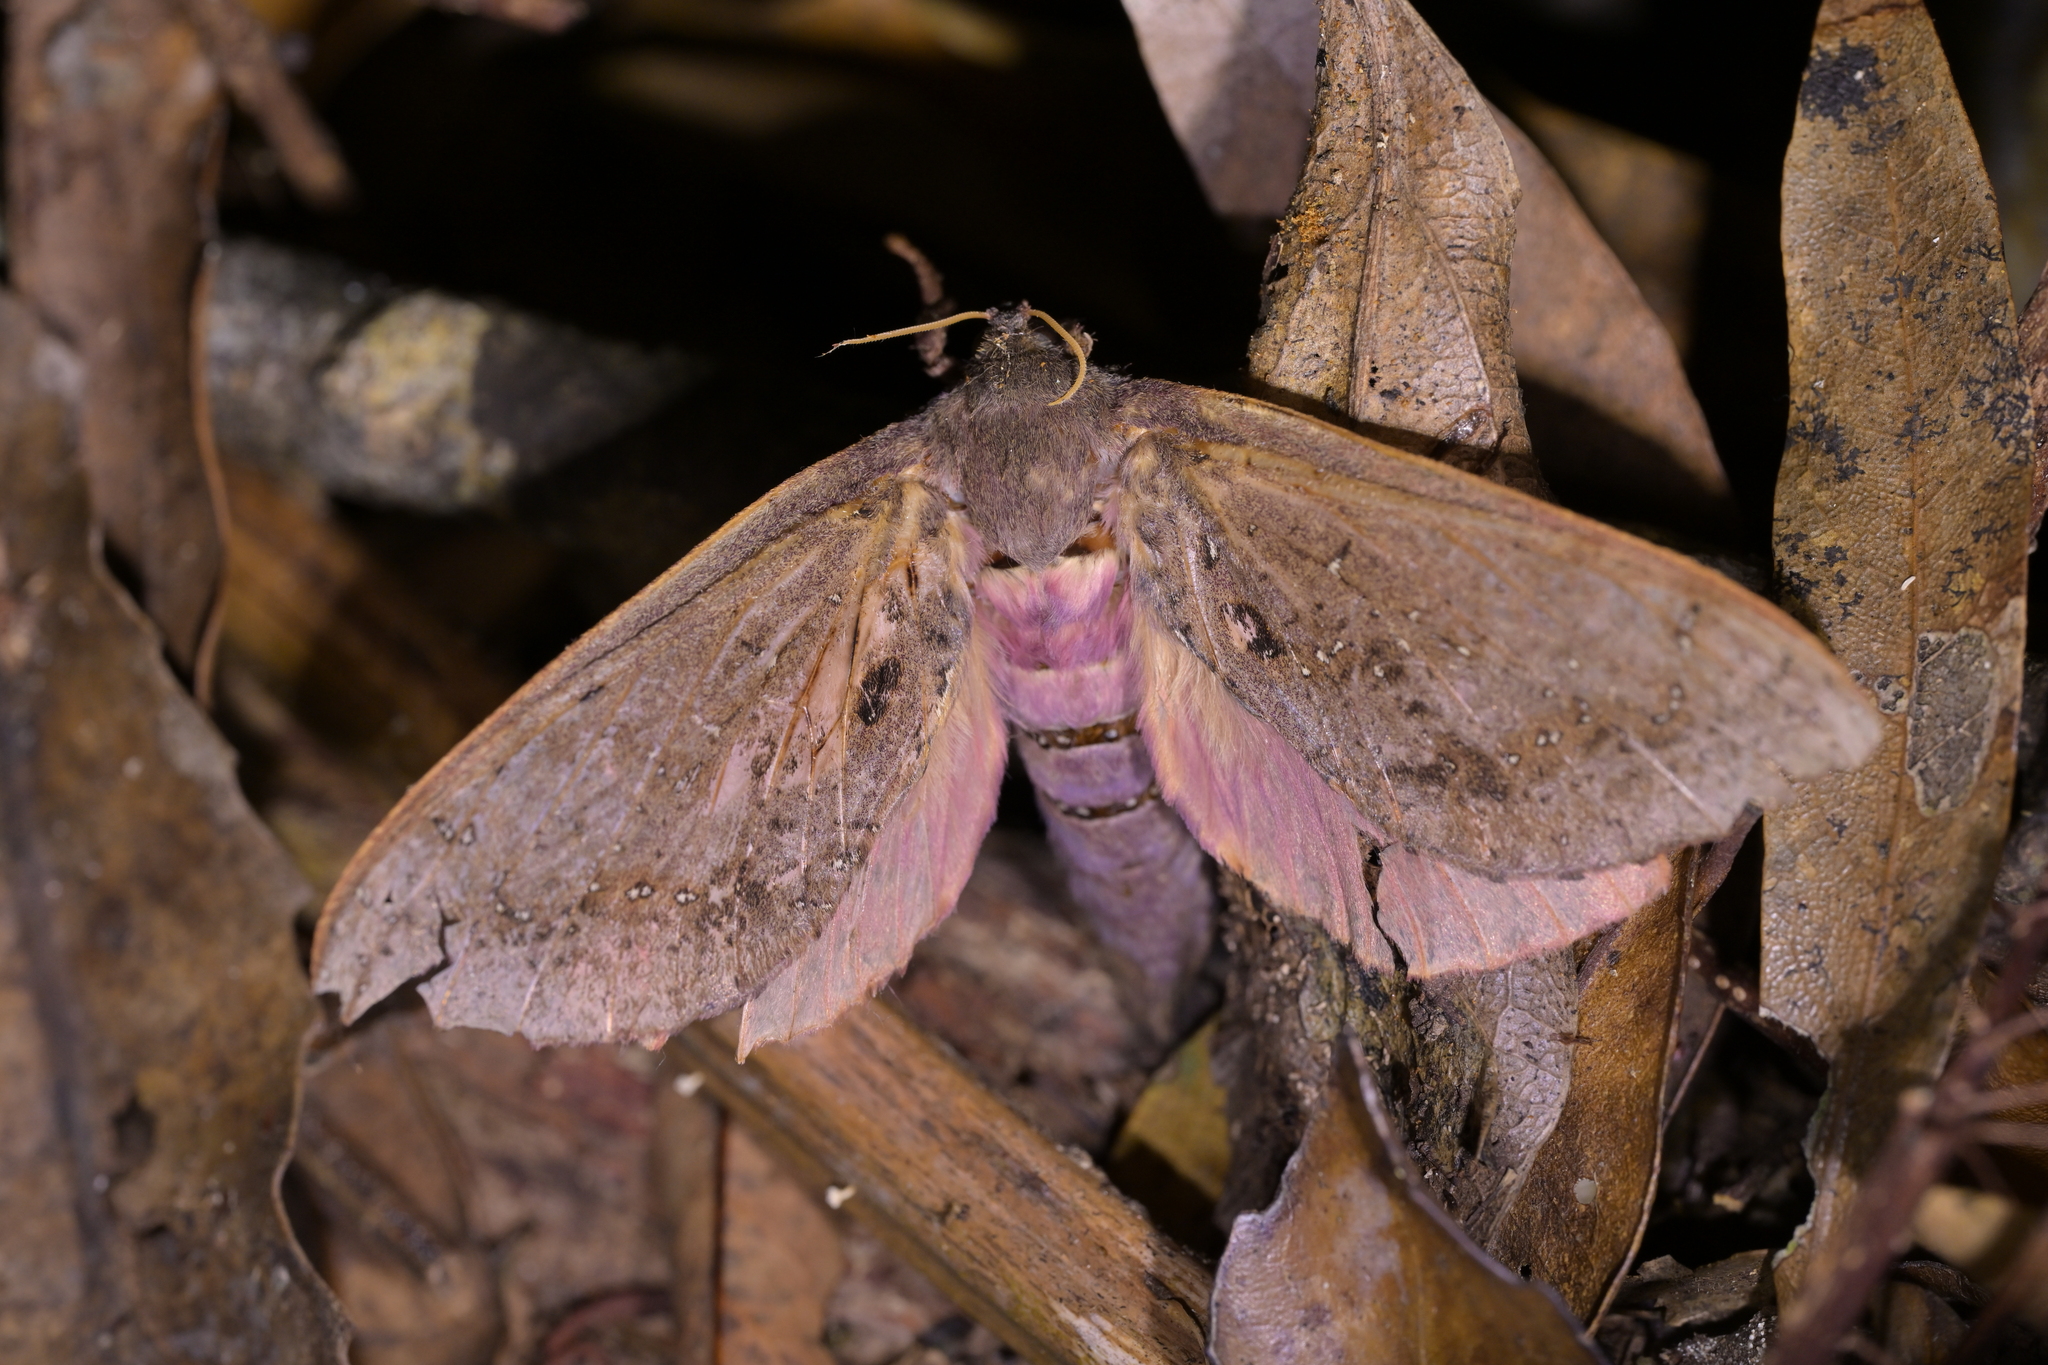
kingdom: Animalia
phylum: Arthropoda
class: Insecta
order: Lepidoptera
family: Hepialidae
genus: Dumbletonius
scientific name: Dumbletonius unimaculata
